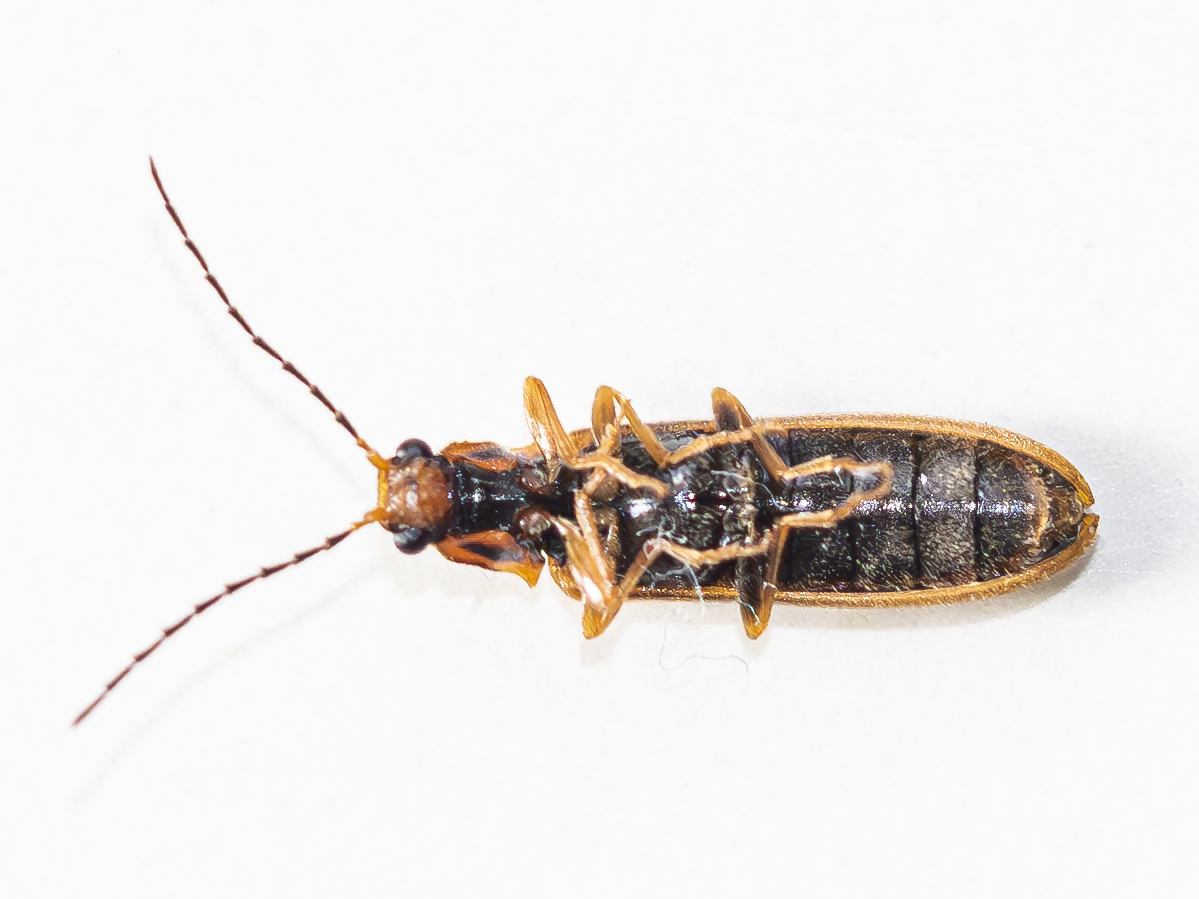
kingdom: Animalia
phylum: Arthropoda
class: Insecta
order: Coleoptera
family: Elateridae
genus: Denticollis
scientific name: Denticollis linearis
